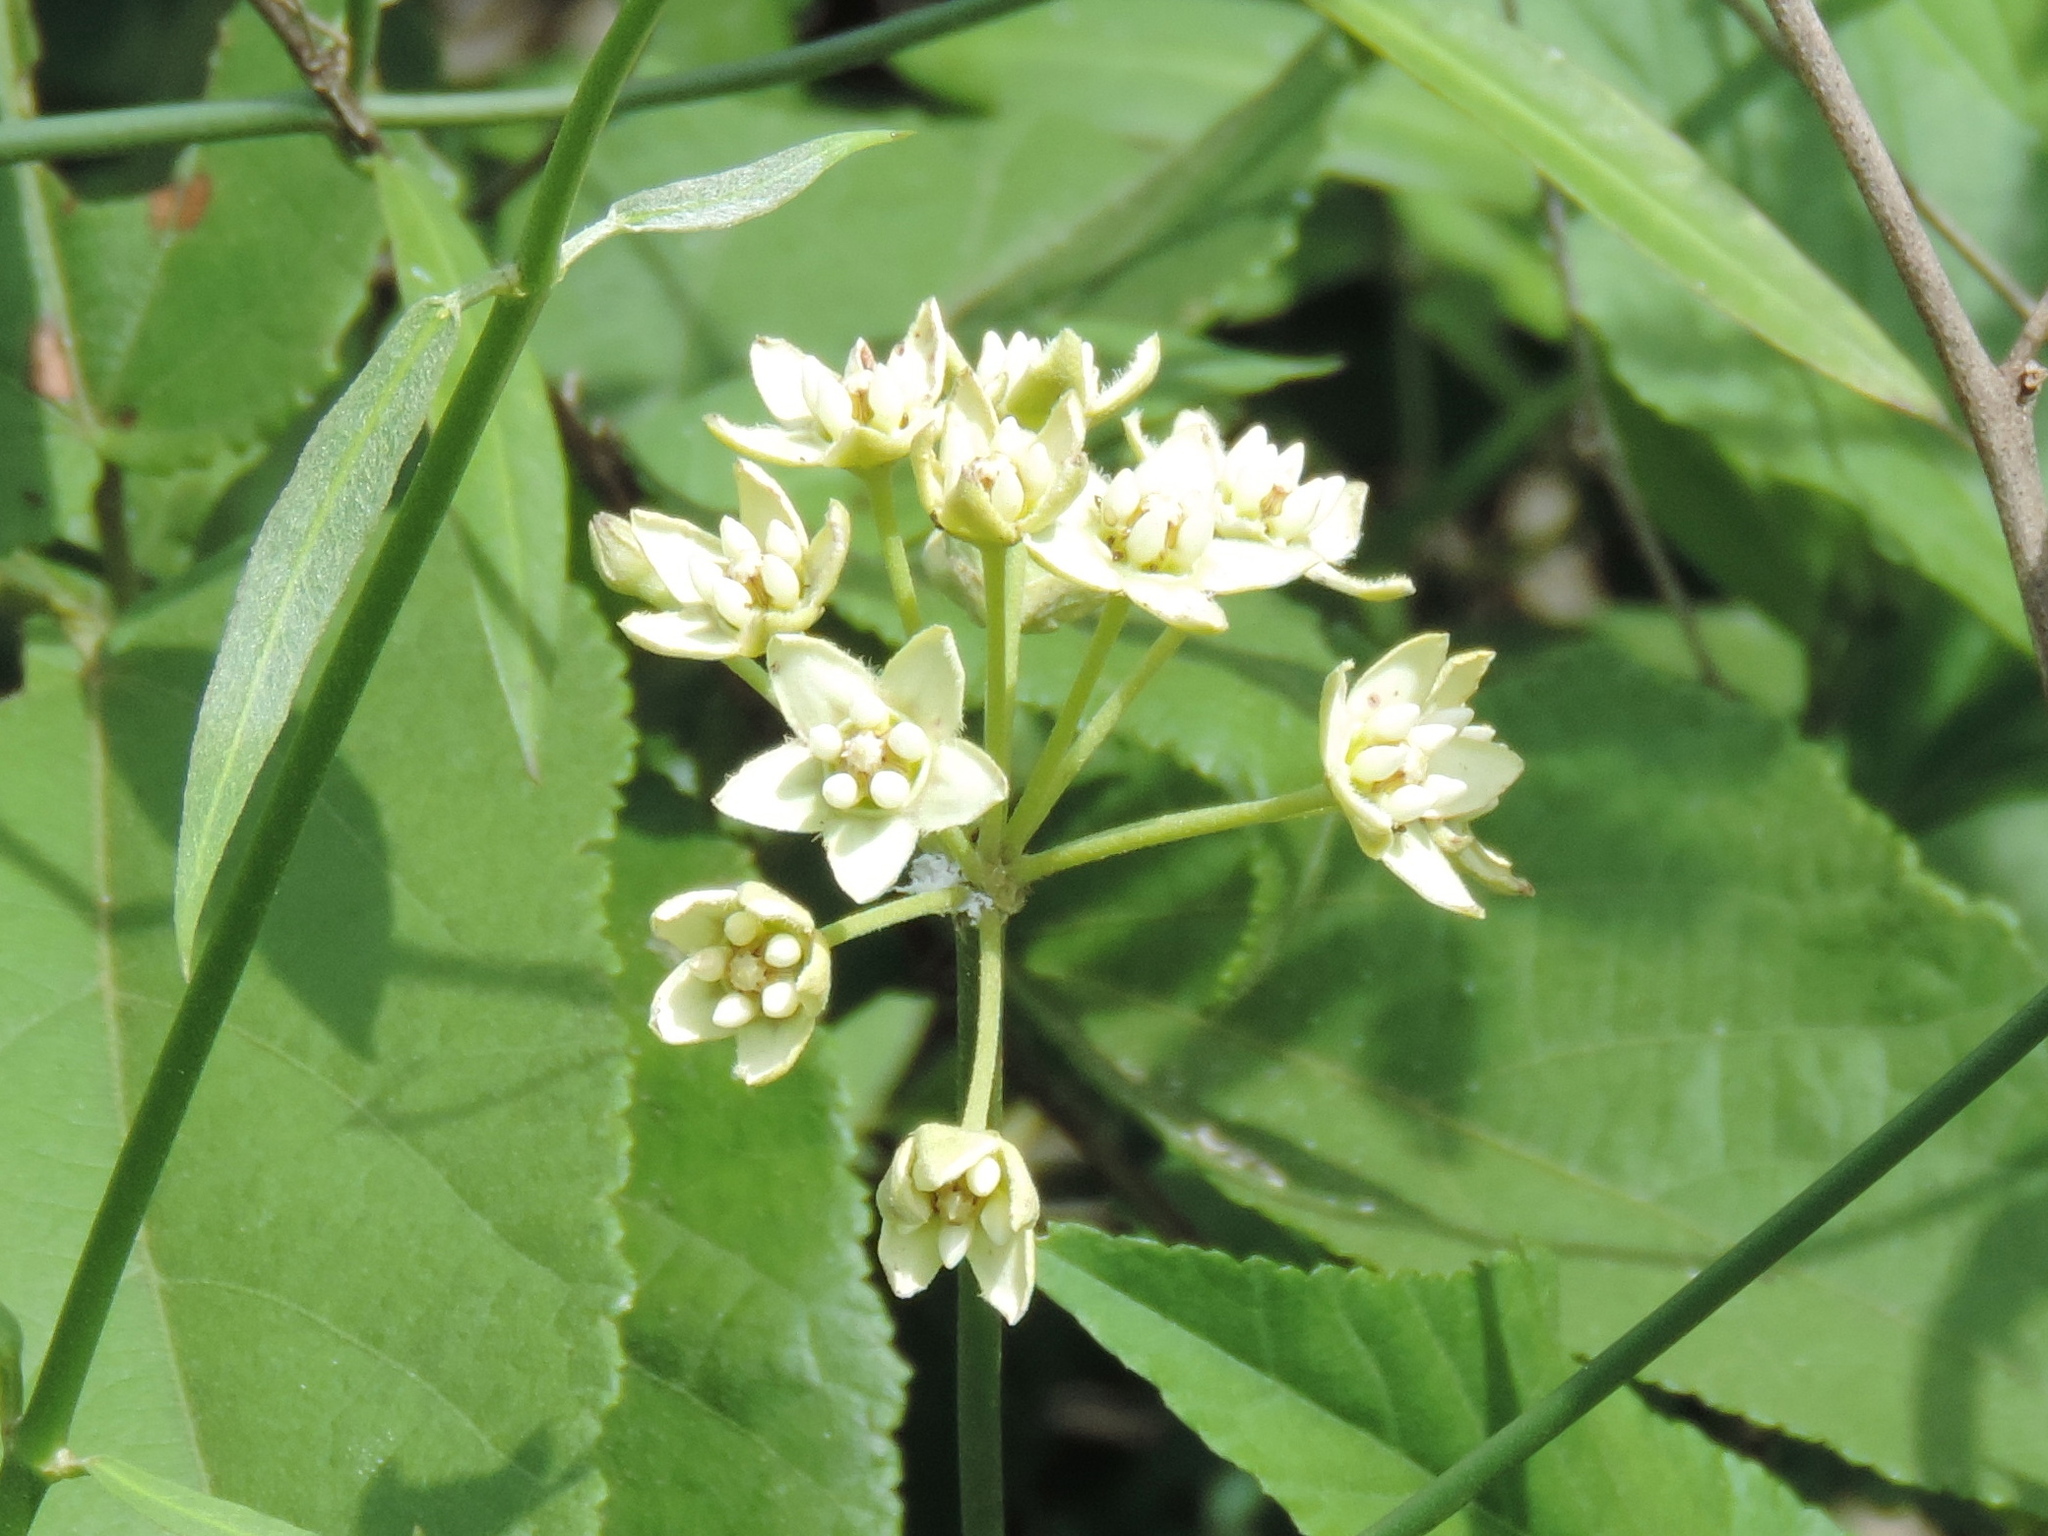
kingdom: Plantae
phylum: Tracheophyta
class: Magnoliopsida
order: Gentianales
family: Apocynaceae
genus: Funastrum
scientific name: Funastrum clausum
